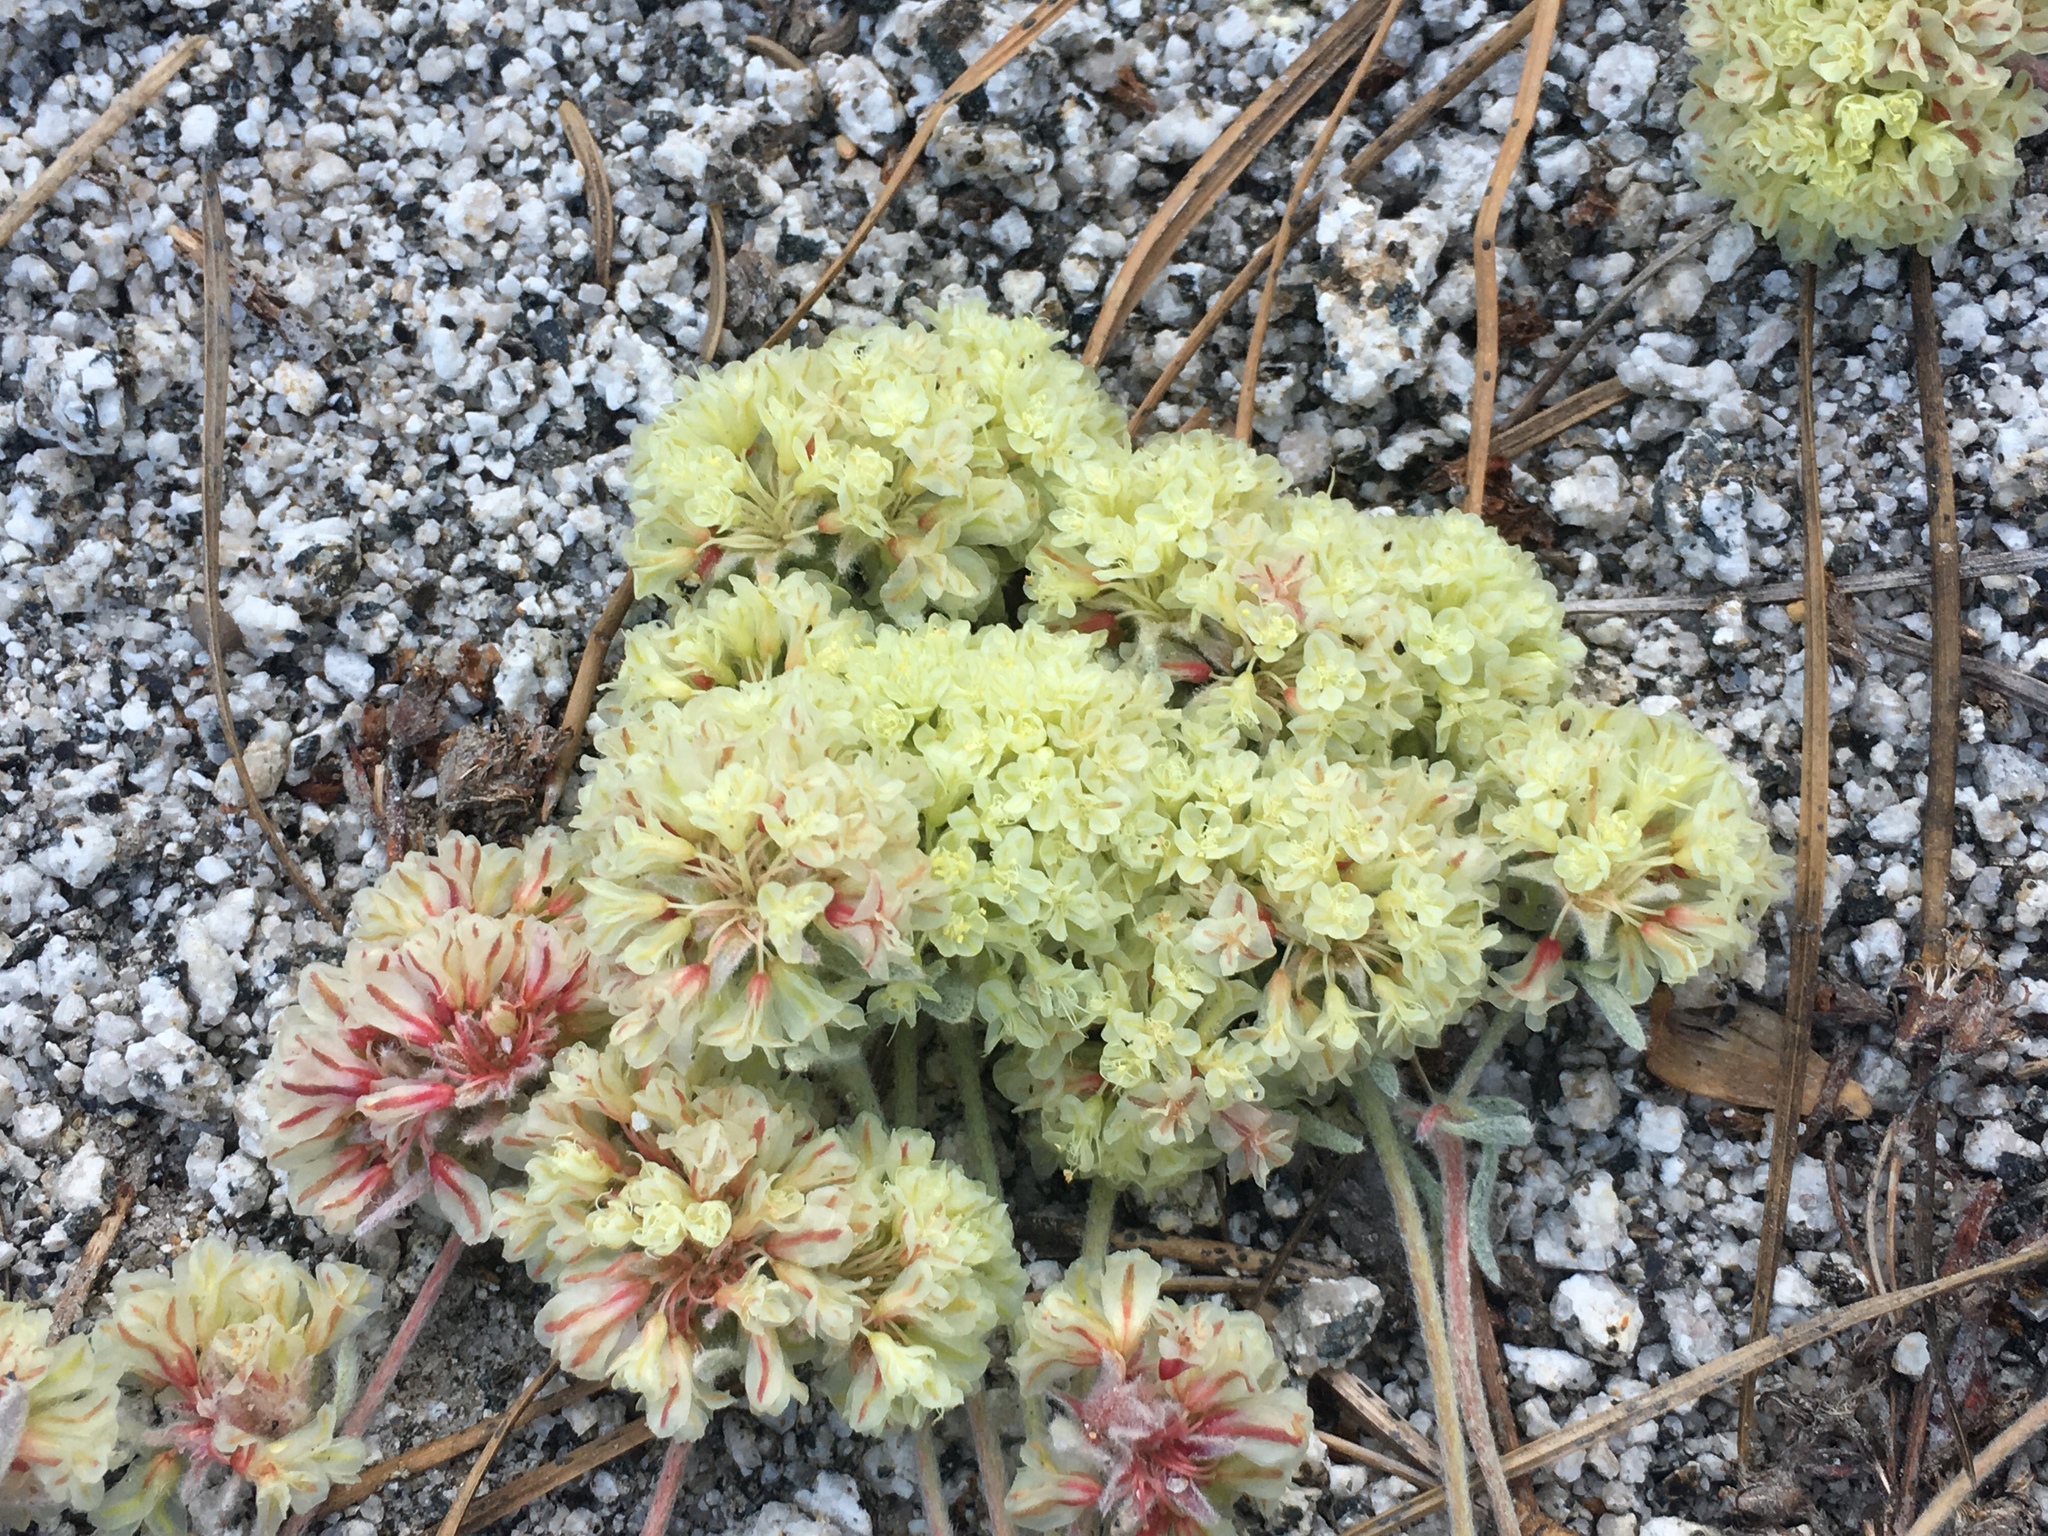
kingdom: Plantae
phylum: Tracheophyta
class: Magnoliopsida
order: Caryophyllales
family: Polygonaceae
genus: Eriogonum
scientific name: Eriogonum lobbii
